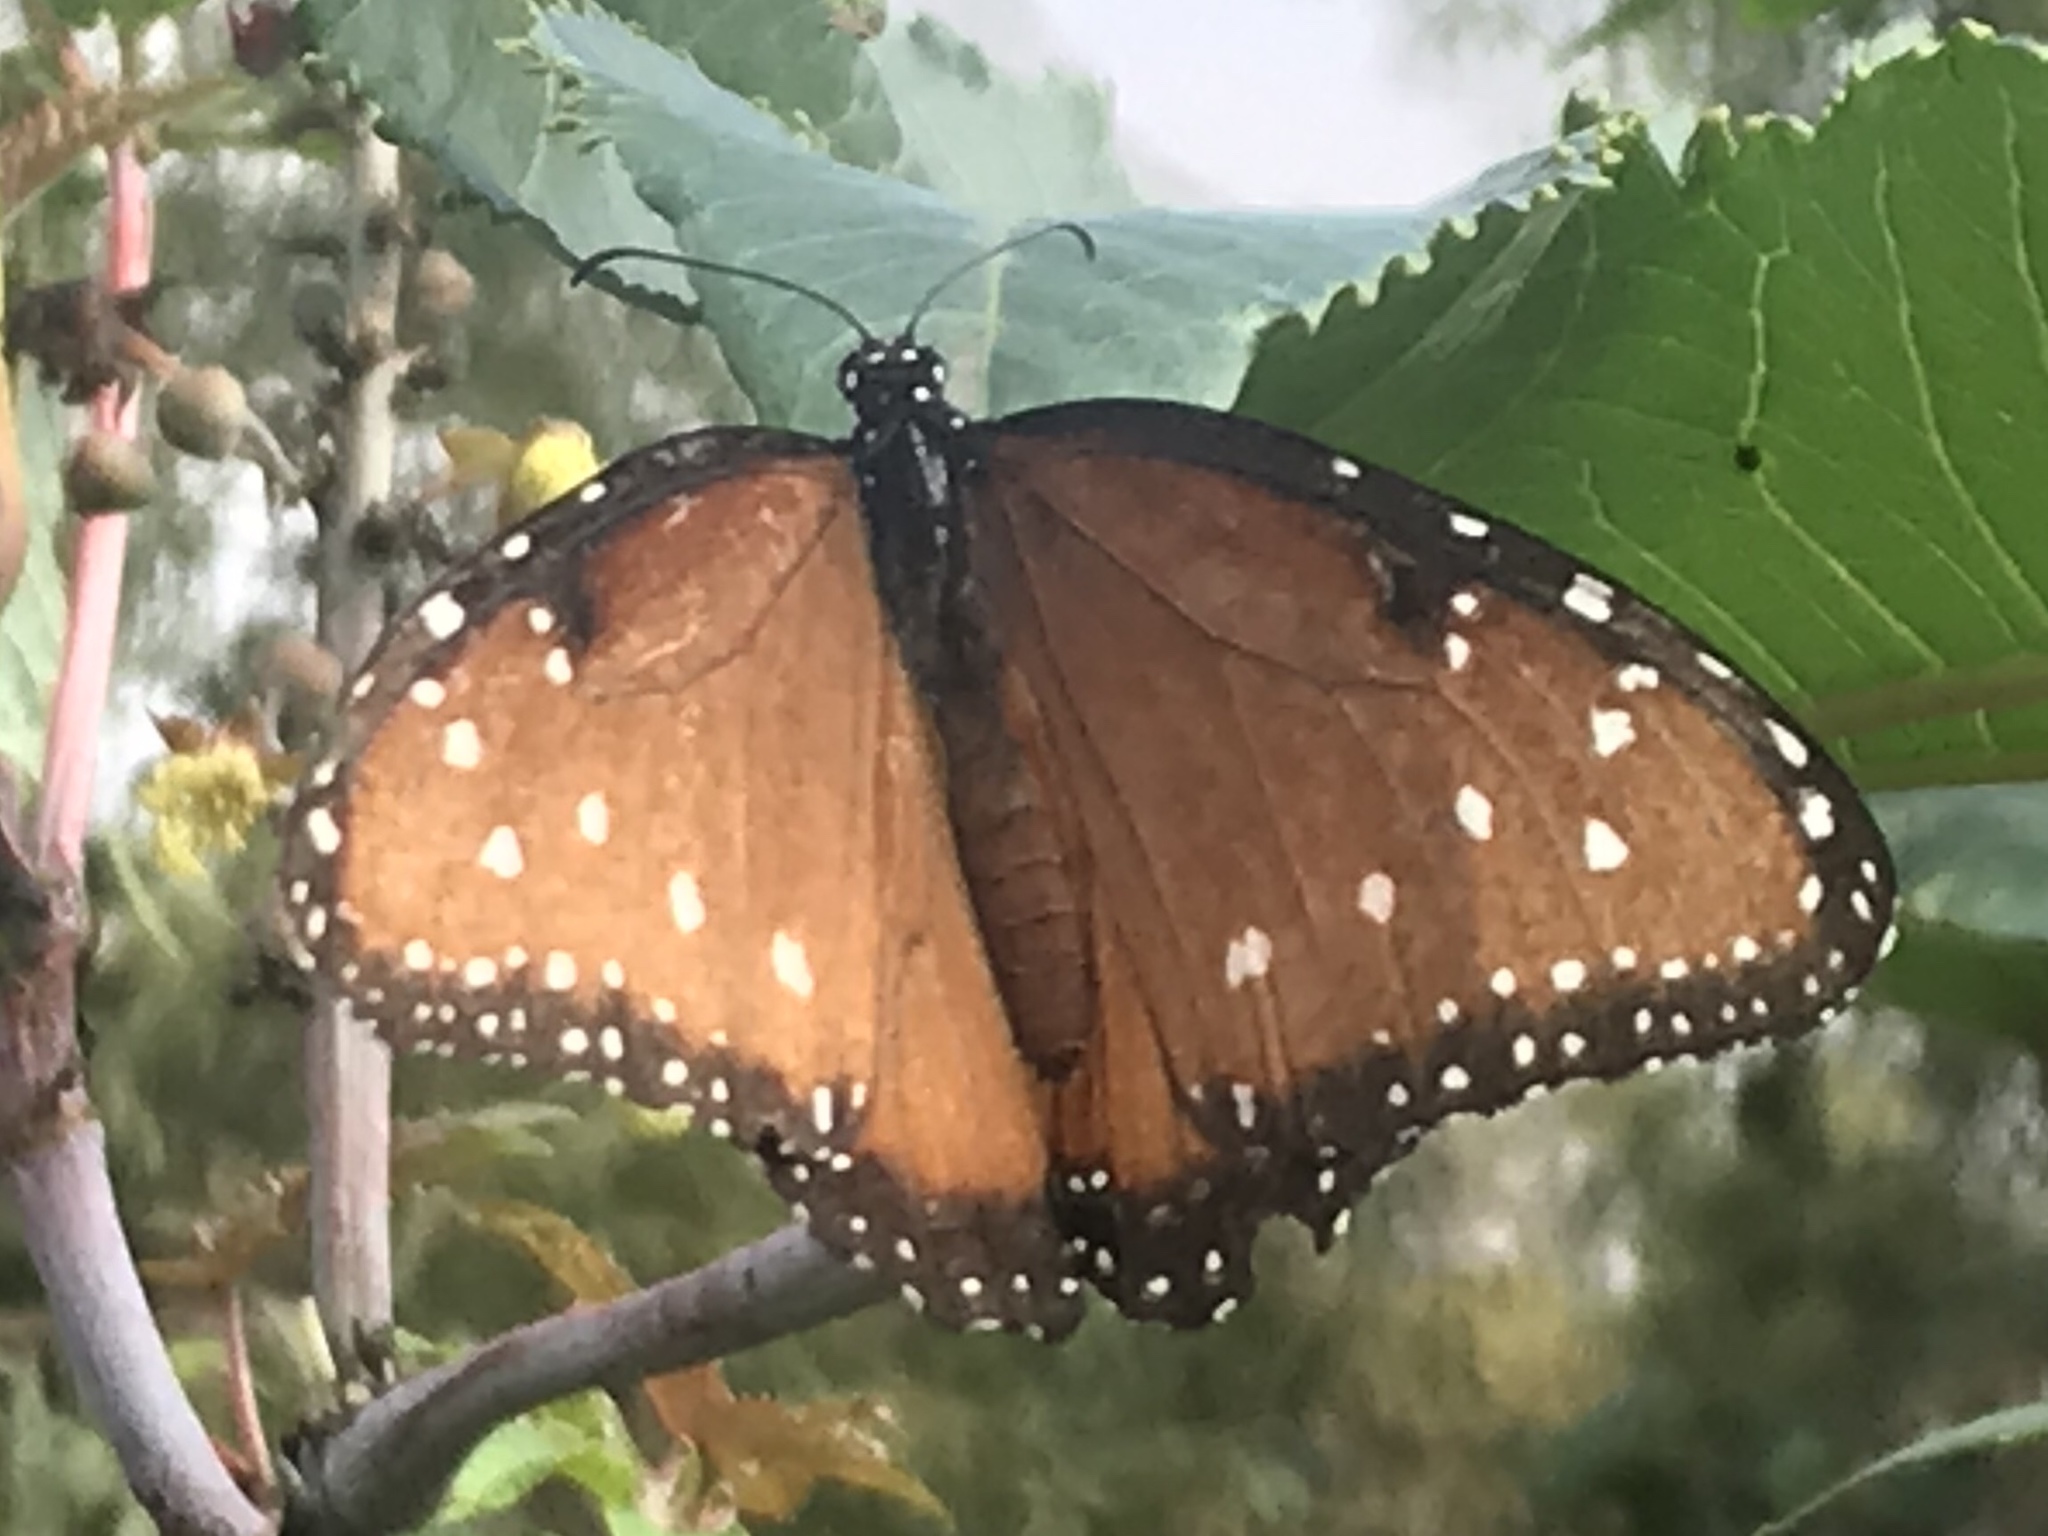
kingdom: Animalia
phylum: Arthropoda
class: Insecta
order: Lepidoptera
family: Nymphalidae
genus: Danaus
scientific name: Danaus gilippus
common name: Queen
